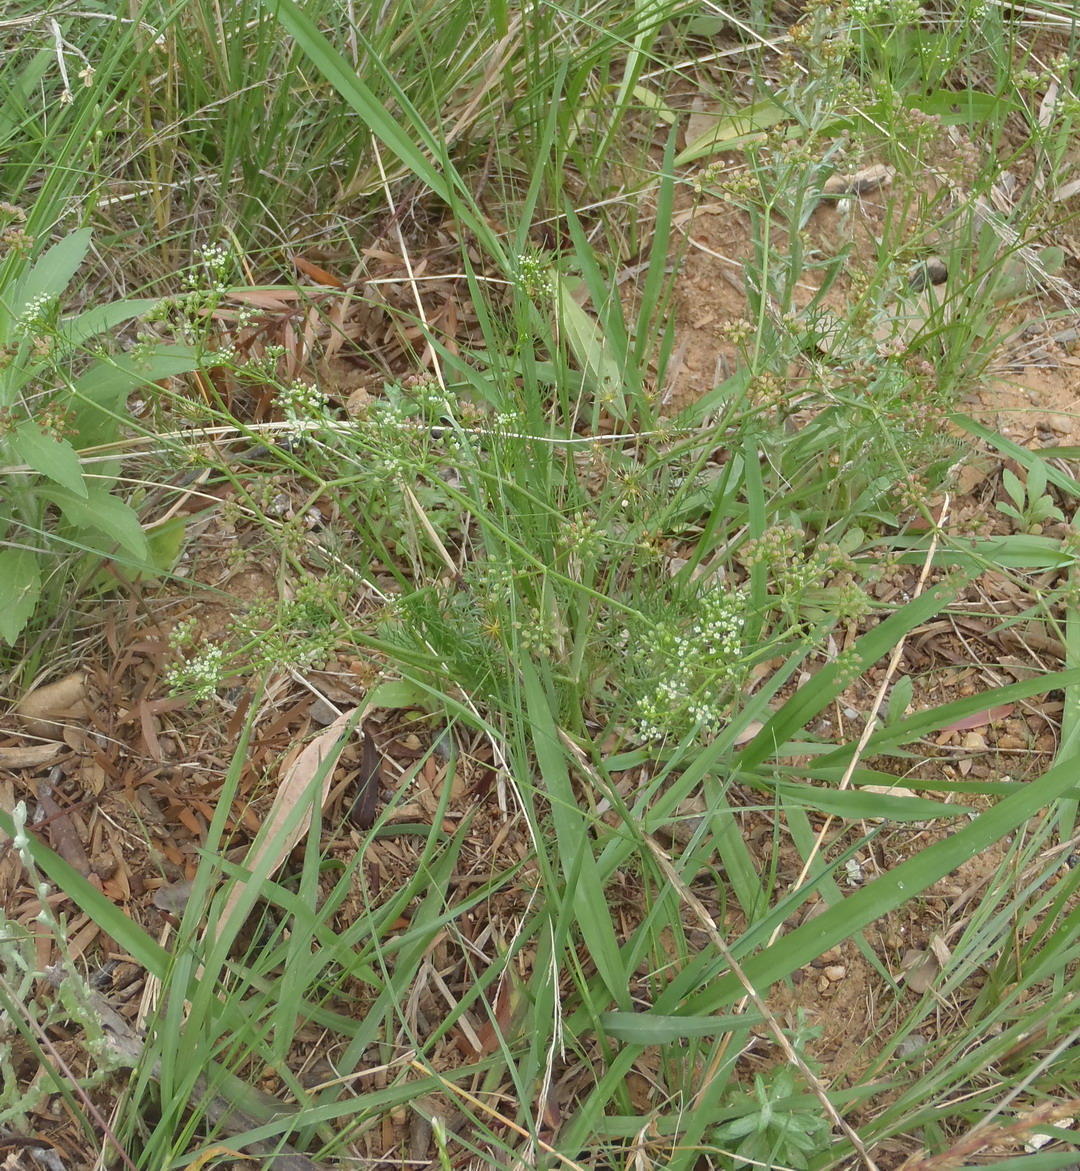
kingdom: Plantae
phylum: Tracheophyta
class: Magnoliopsida
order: Apiales
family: Apiaceae
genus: Cyclospermum
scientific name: Cyclospermum leptophyllum
